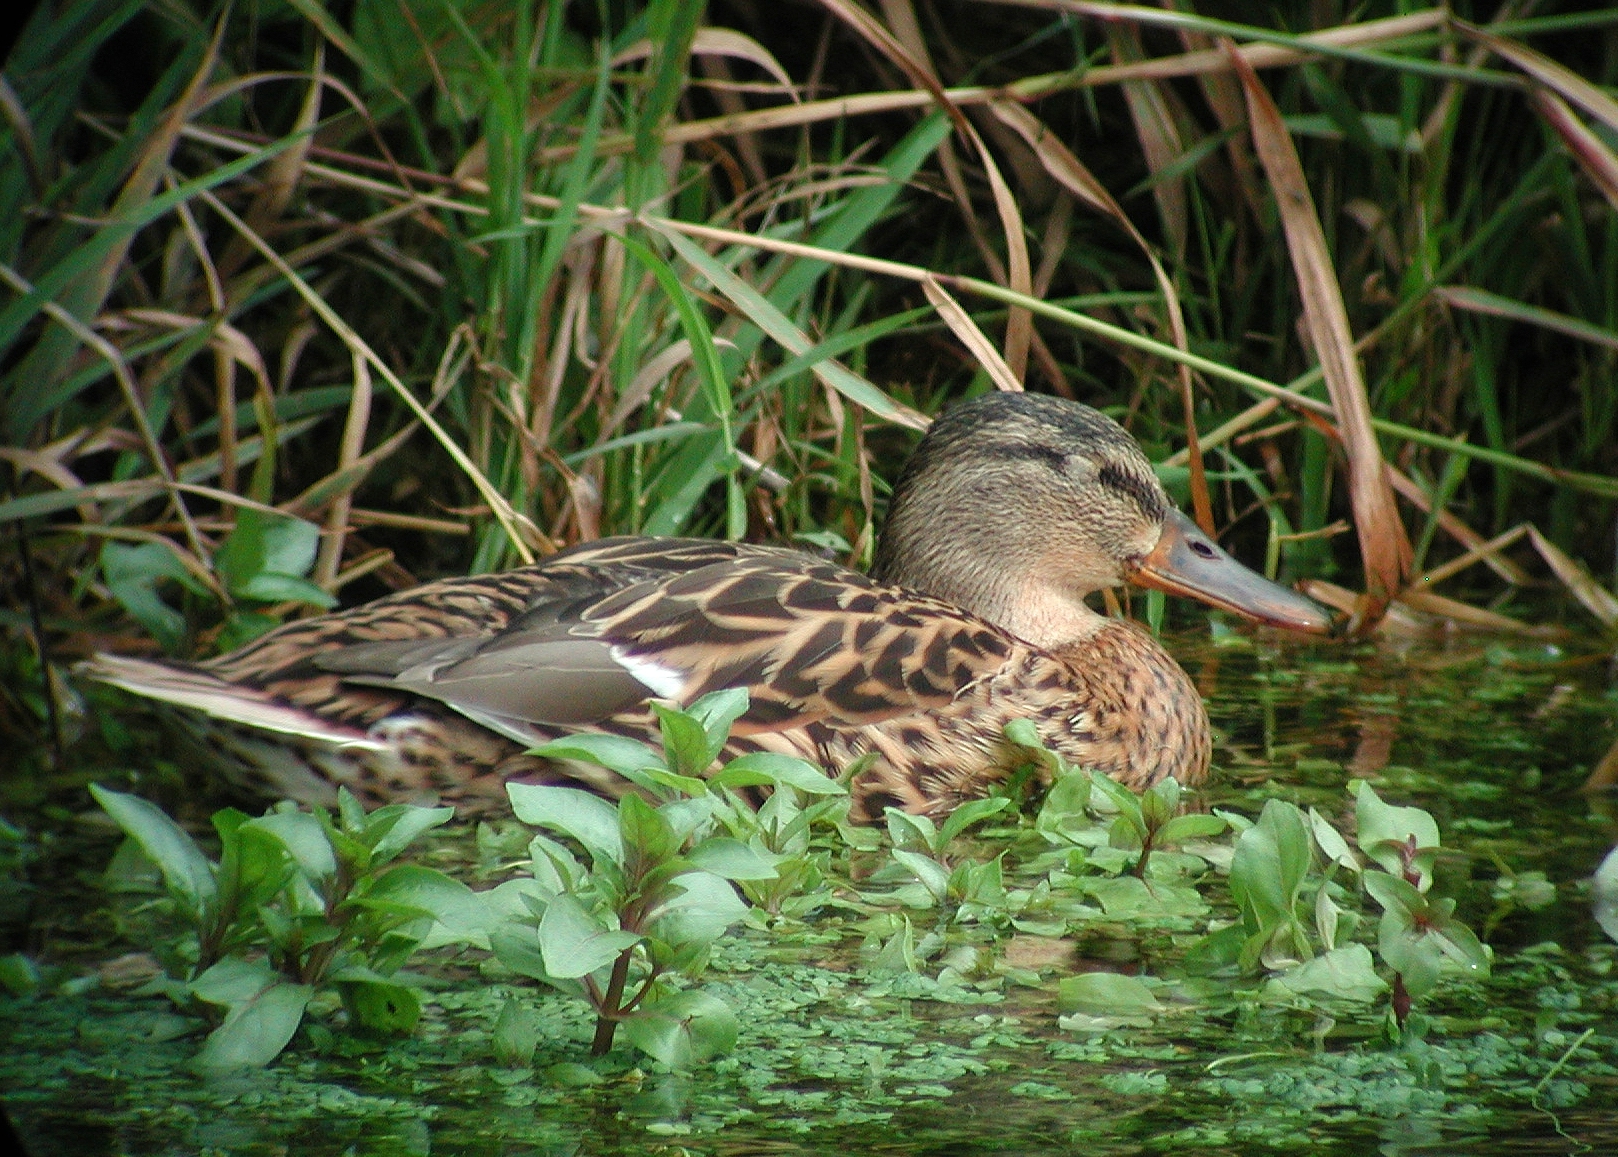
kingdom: Animalia
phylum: Chordata
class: Aves
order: Anseriformes
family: Anatidae
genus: Anas
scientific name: Anas platyrhynchos
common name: Mallard
